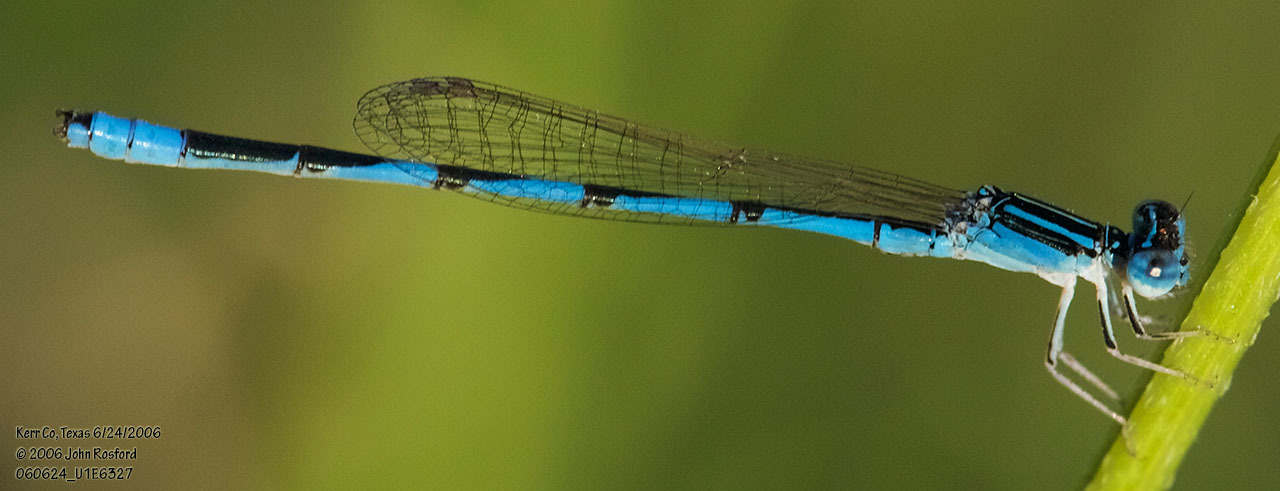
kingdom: Animalia
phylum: Arthropoda
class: Insecta
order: Odonata
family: Coenagrionidae
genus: Enallagma
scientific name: Enallagma basidens
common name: Double-striped bluet
